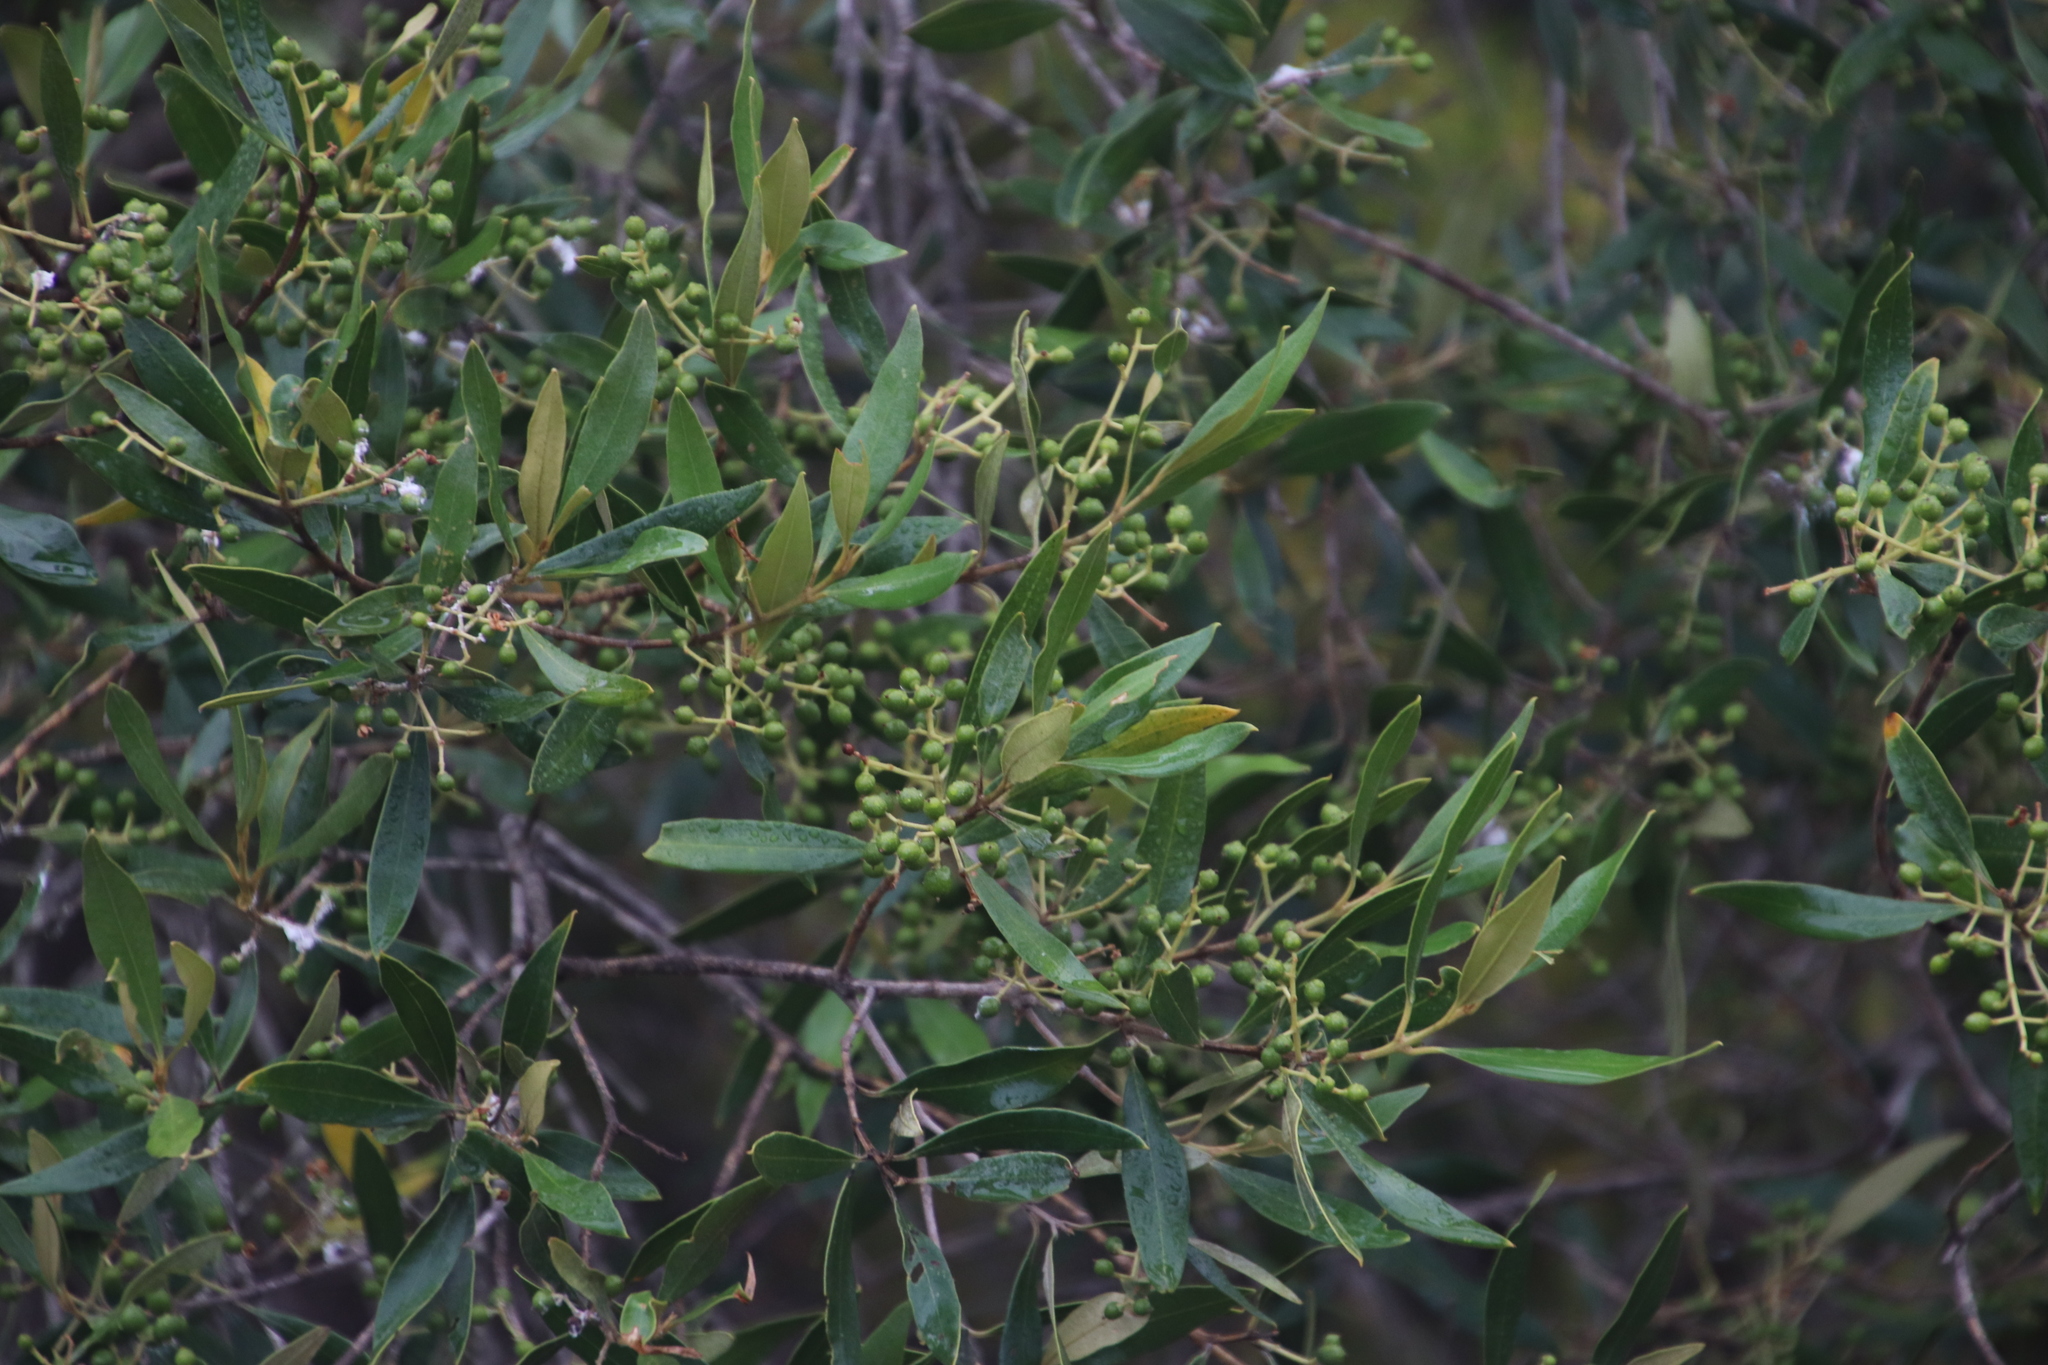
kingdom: Plantae
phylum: Tracheophyta
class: Magnoliopsida
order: Lamiales
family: Oleaceae
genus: Olea
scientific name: Olea europaea
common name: Olive
